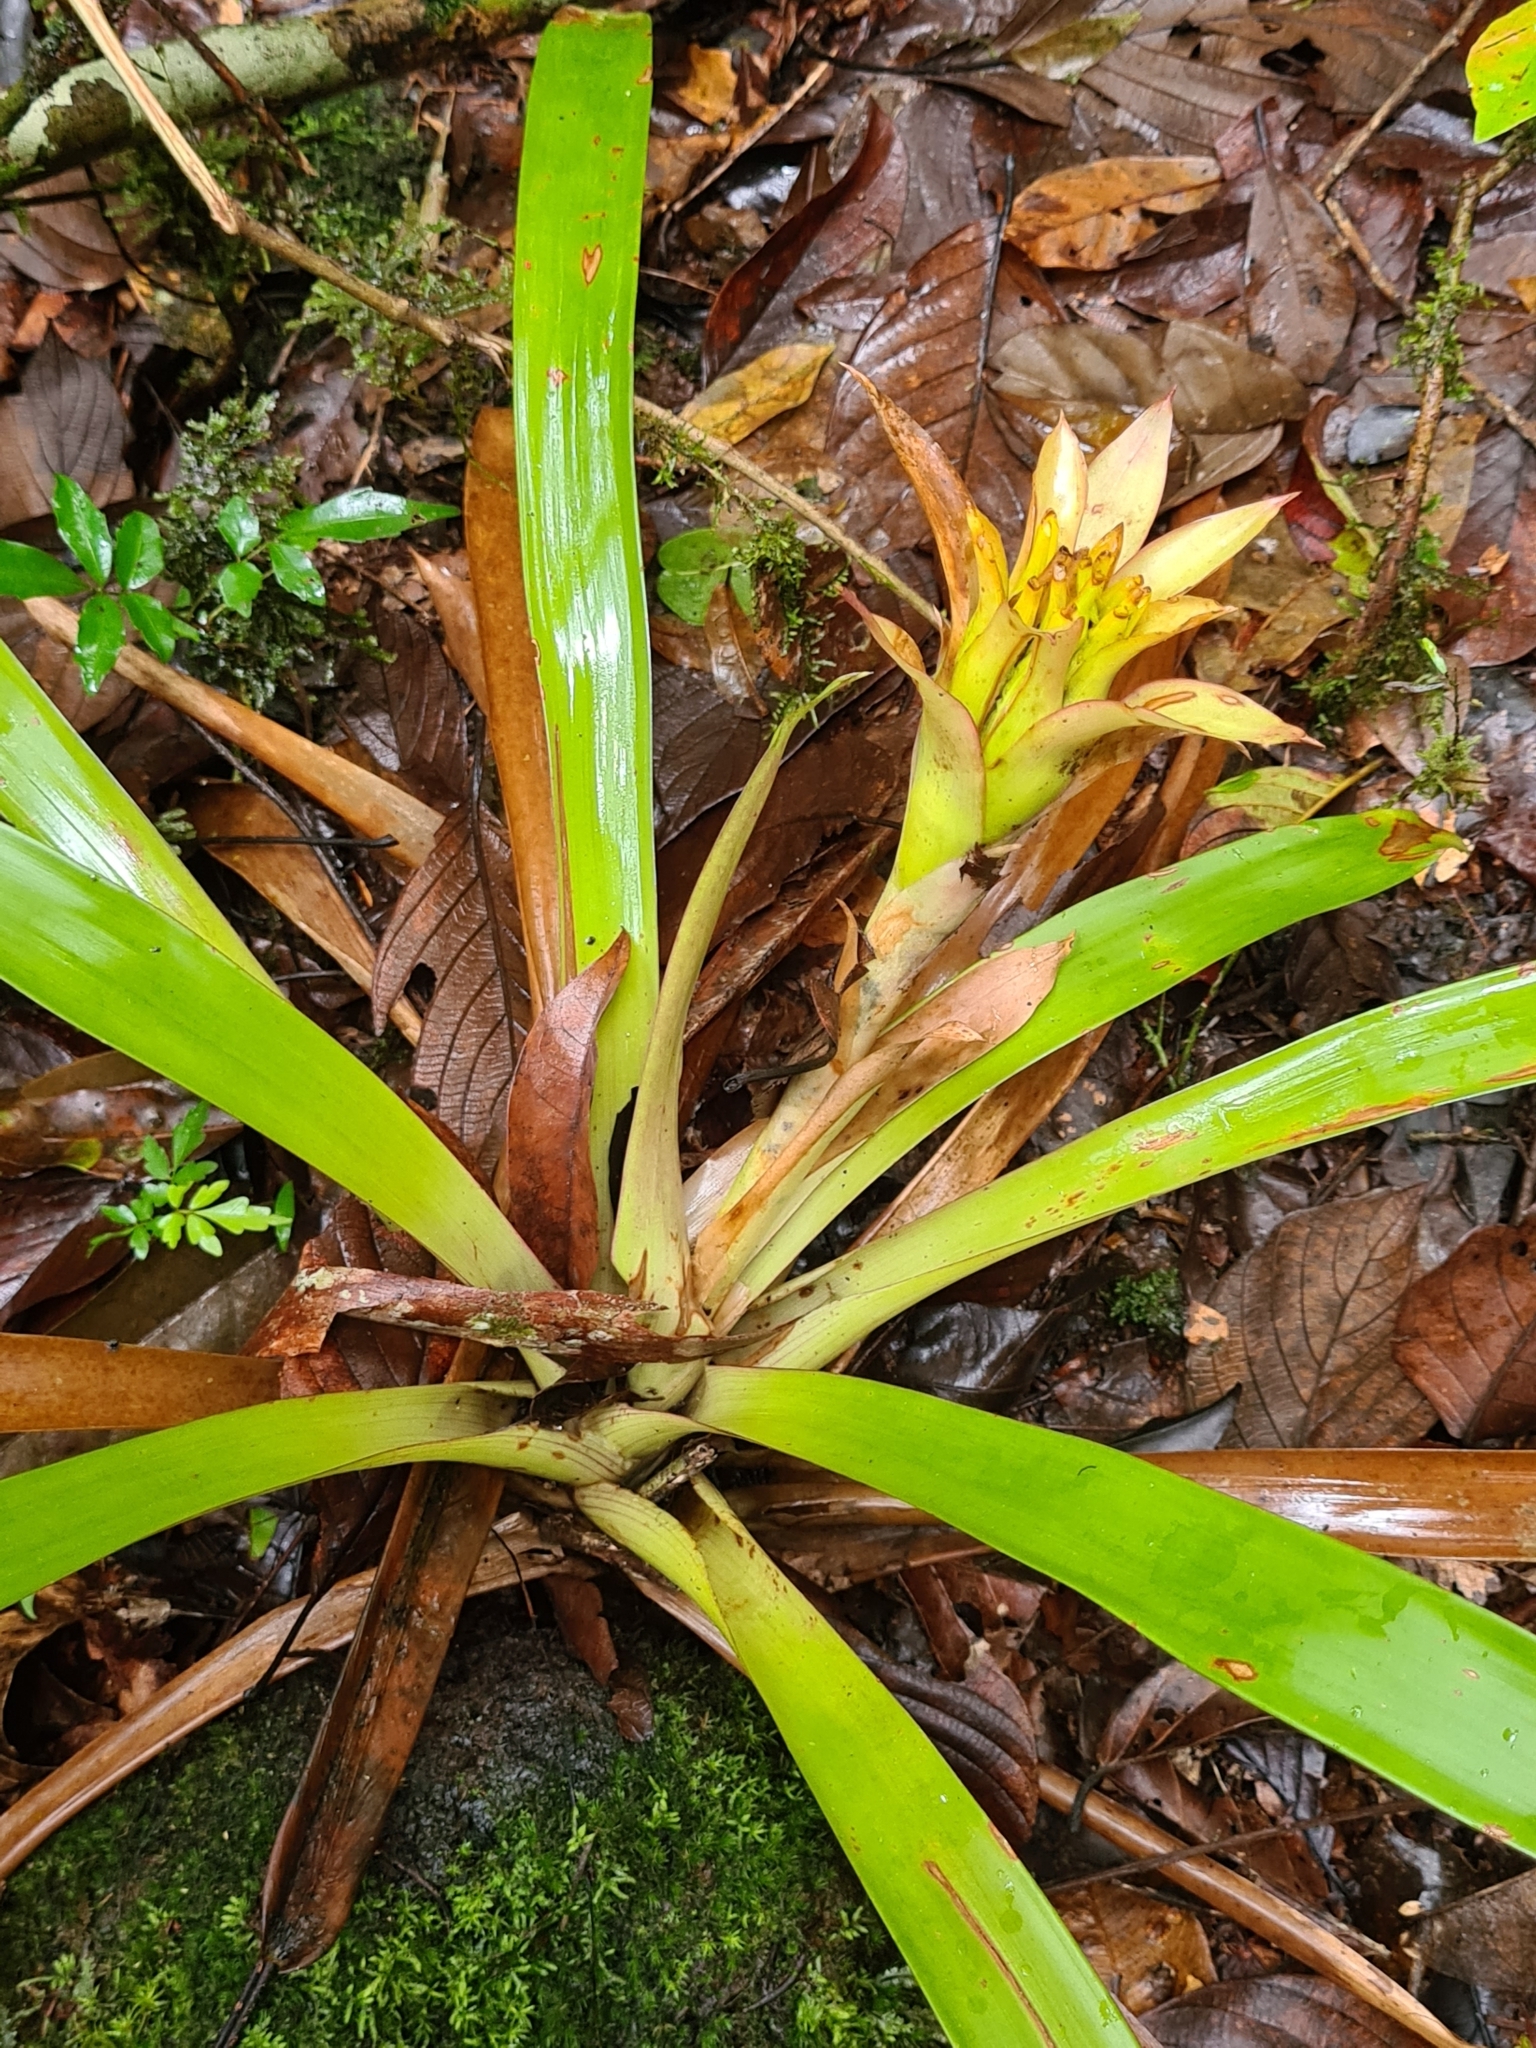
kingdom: Plantae
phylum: Tracheophyta
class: Liliopsida
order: Poales
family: Bromeliaceae
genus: Guzmania
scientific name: Guzmania lingulata
